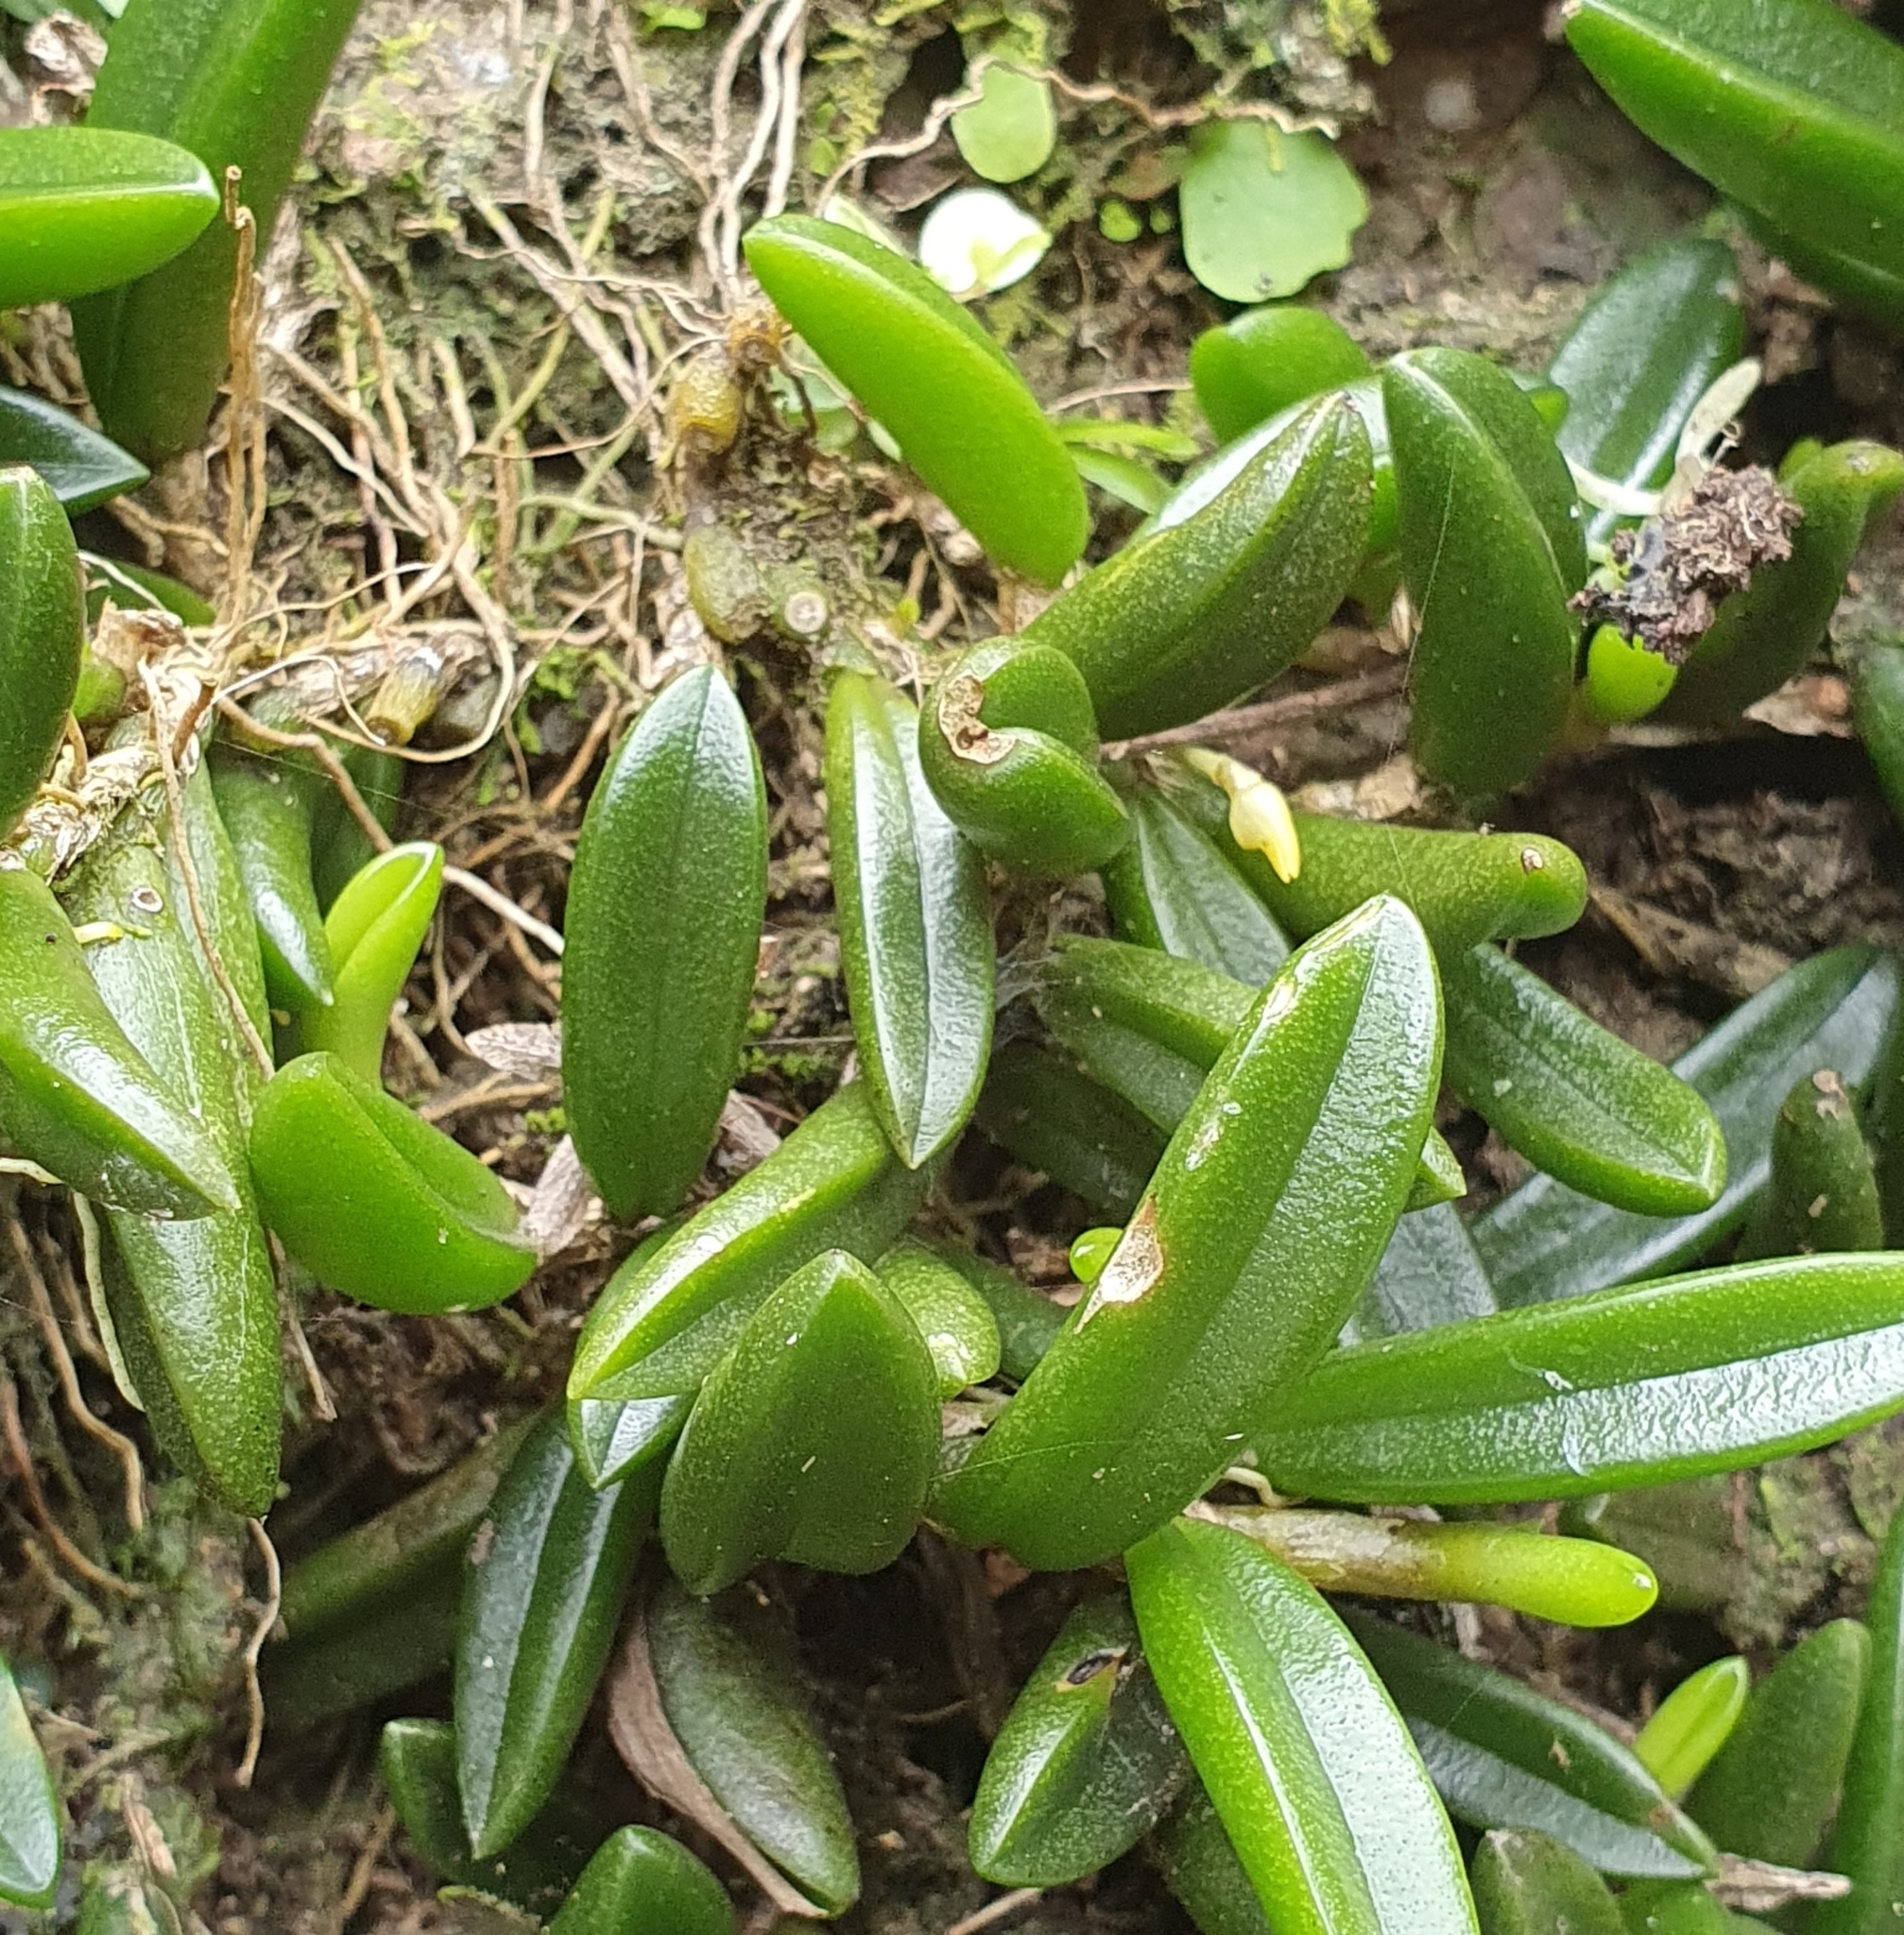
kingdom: Plantae
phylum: Tracheophyta
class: Liliopsida
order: Asparagales
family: Orchidaceae
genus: Bulbophyllum
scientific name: Bulbophyllum shepherdii
